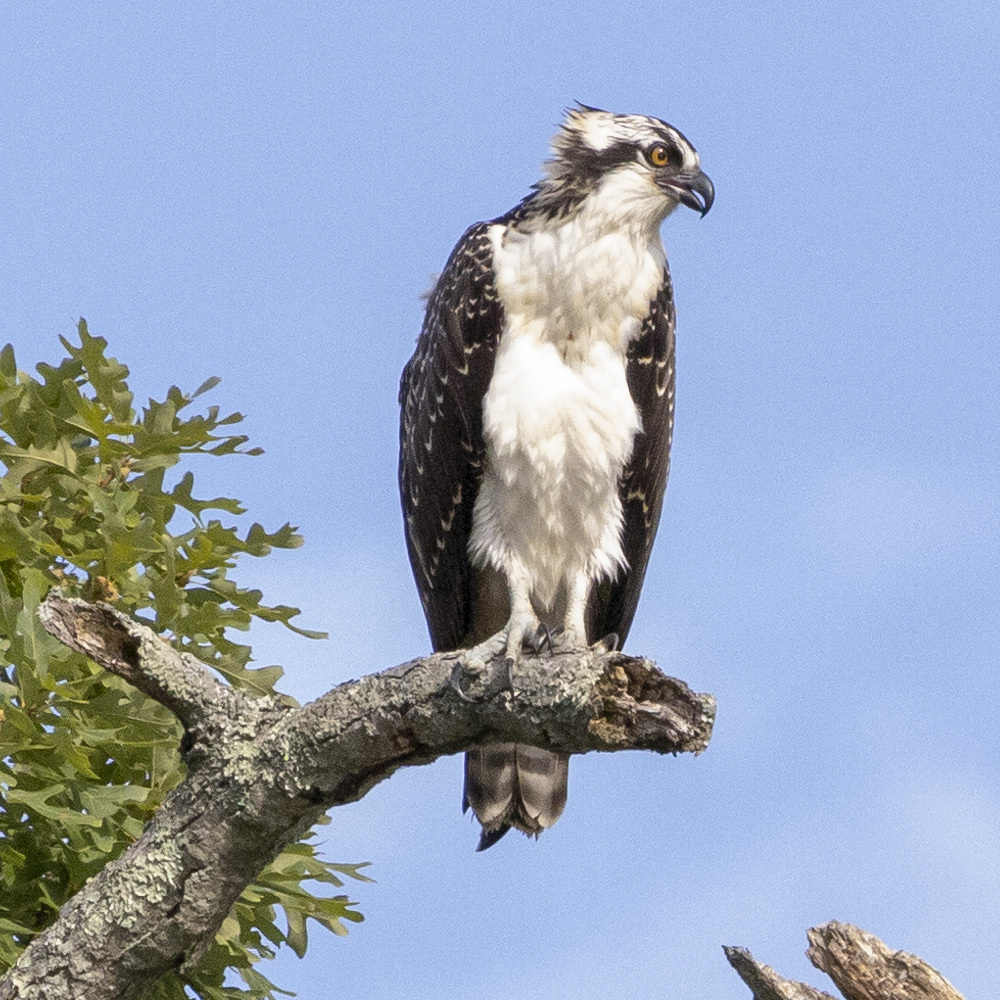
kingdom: Animalia
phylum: Chordata
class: Aves
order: Accipitriformes
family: Pandionidae
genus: Pandion
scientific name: Pandion haliaetus
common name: Osprey
